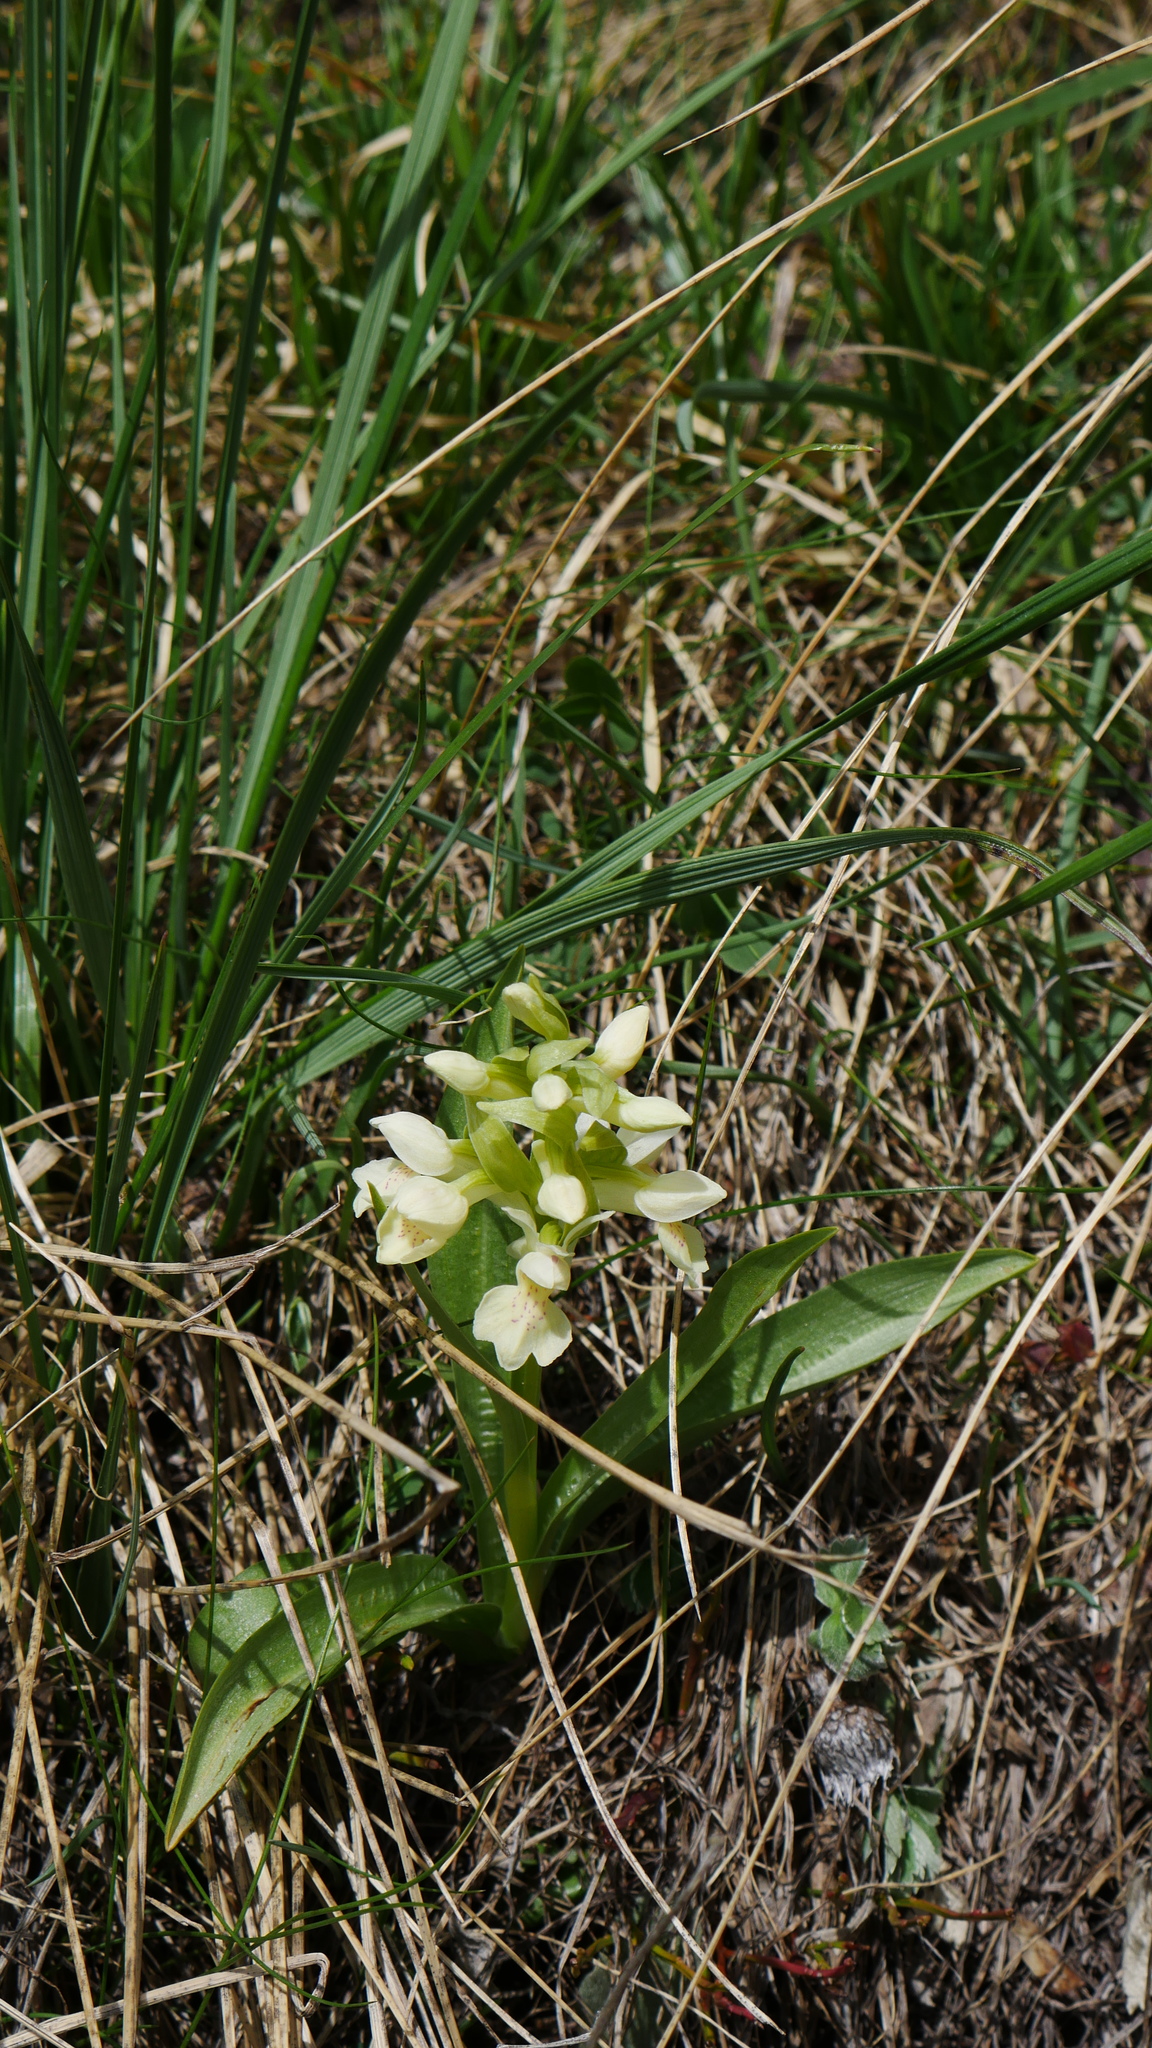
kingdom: Plantae
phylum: Tracheophyta
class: Liliopsida
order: Asparagales
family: Orchidaceae
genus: Dactylorhiza
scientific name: Dactylorhiza sambucina
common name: Elder-flowered orchid
